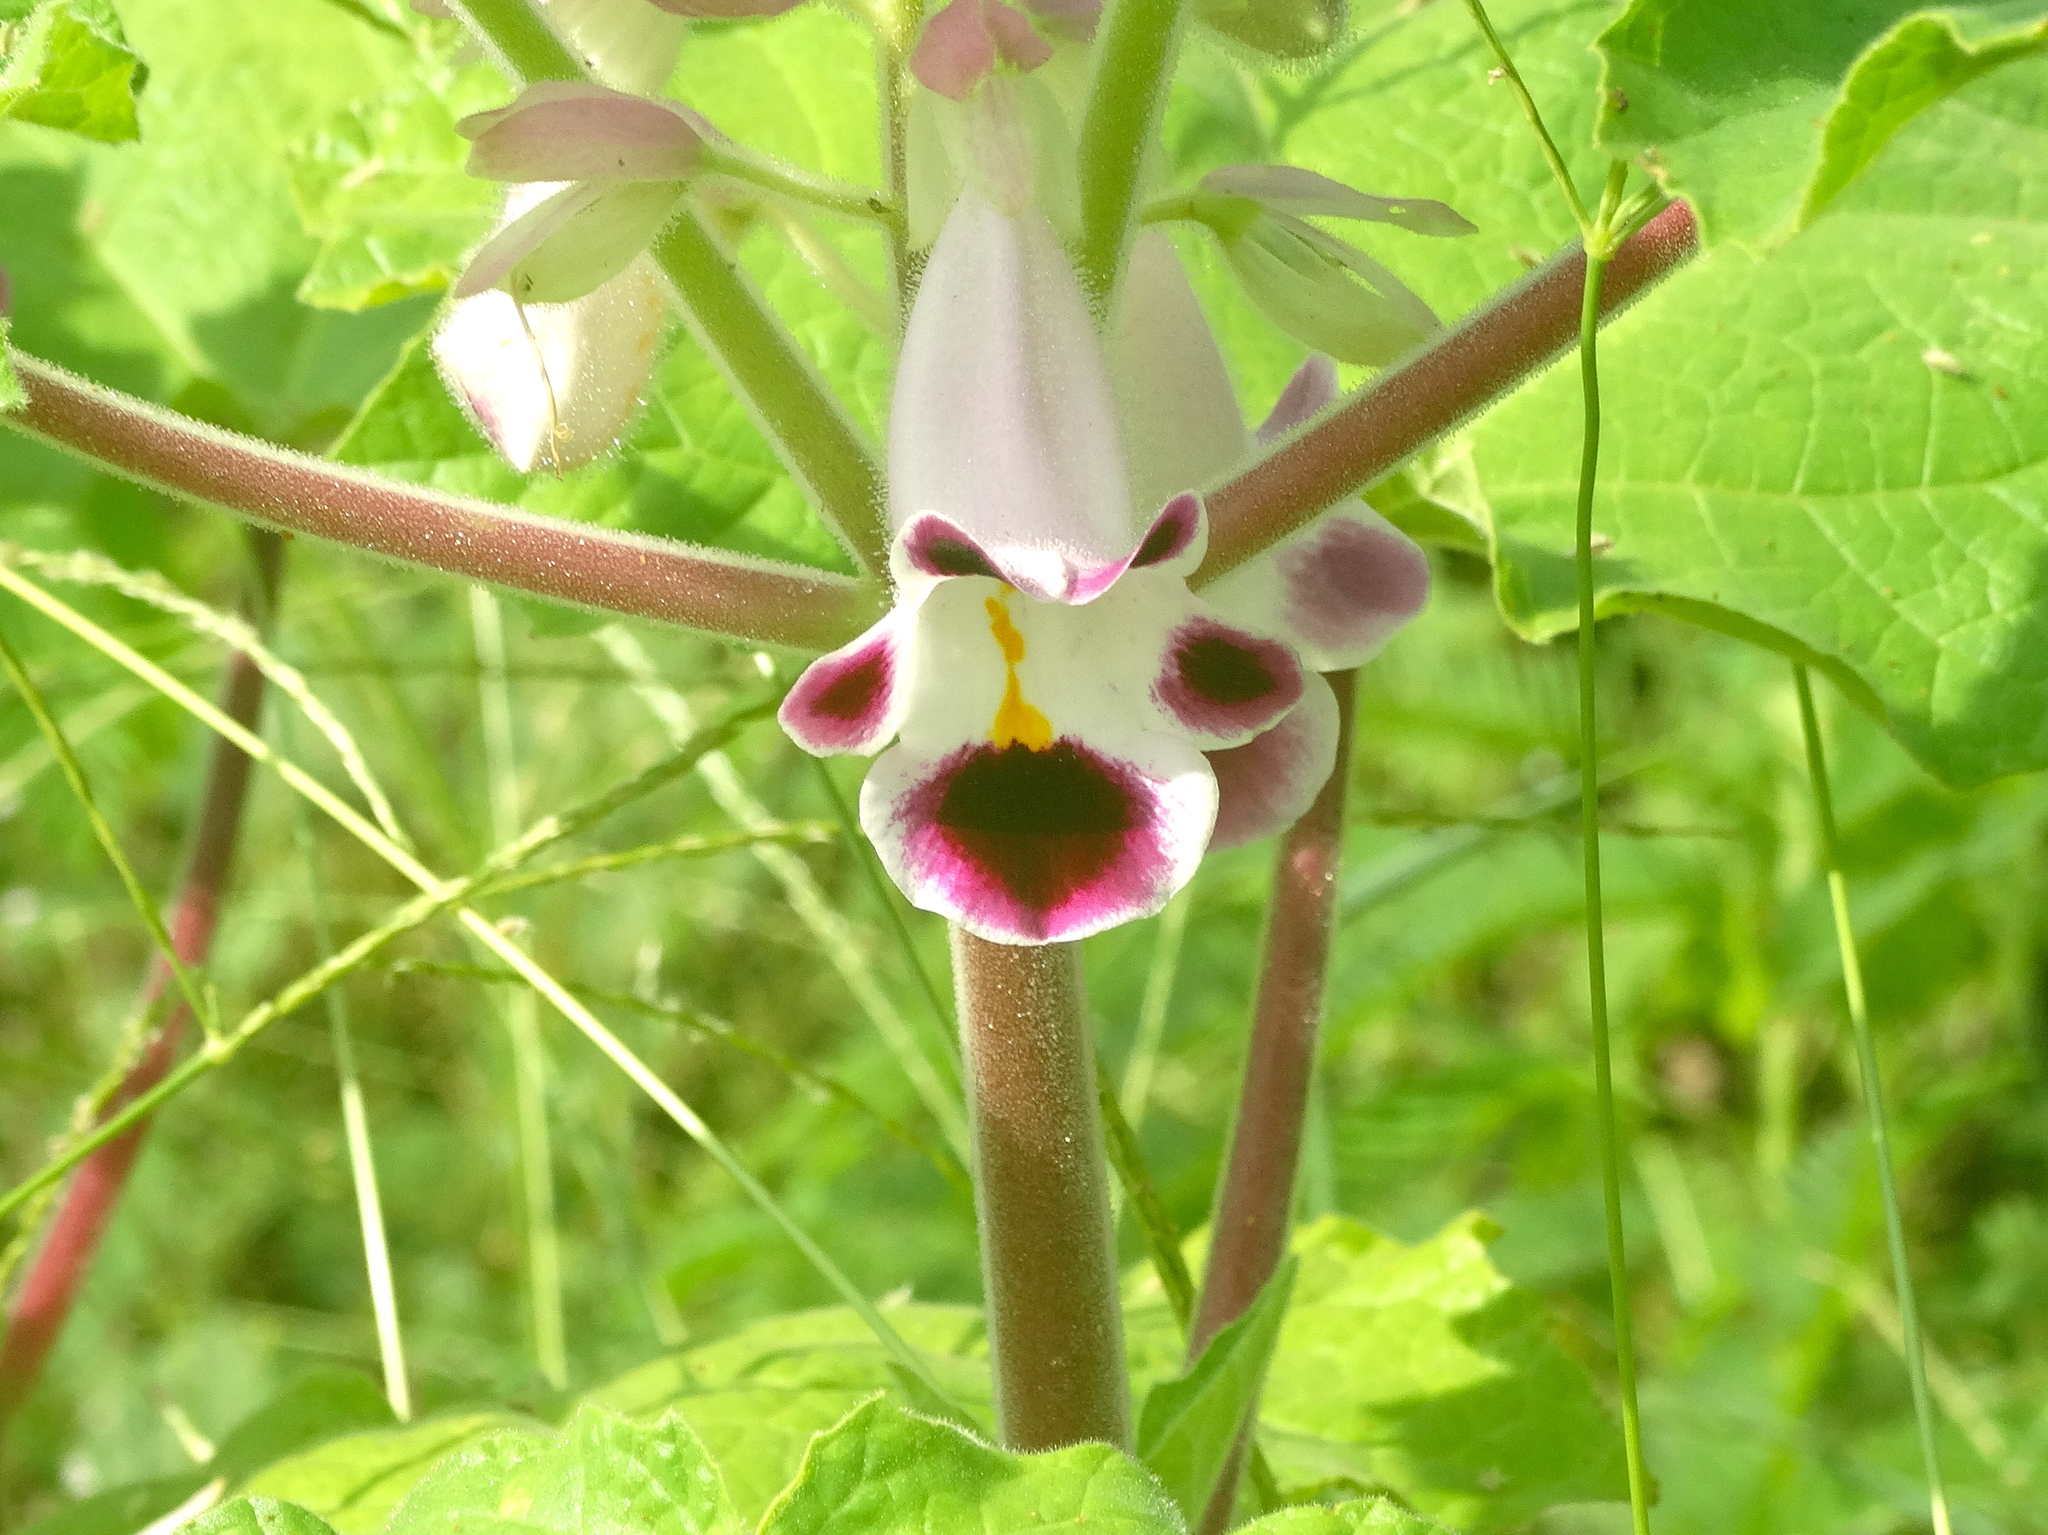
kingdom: Plantae
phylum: Tracheophyta
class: Magnoliopsida
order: Lamiales
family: Martyniaceae
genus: Martynia
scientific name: Martynia annua
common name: Tiger's-claw
